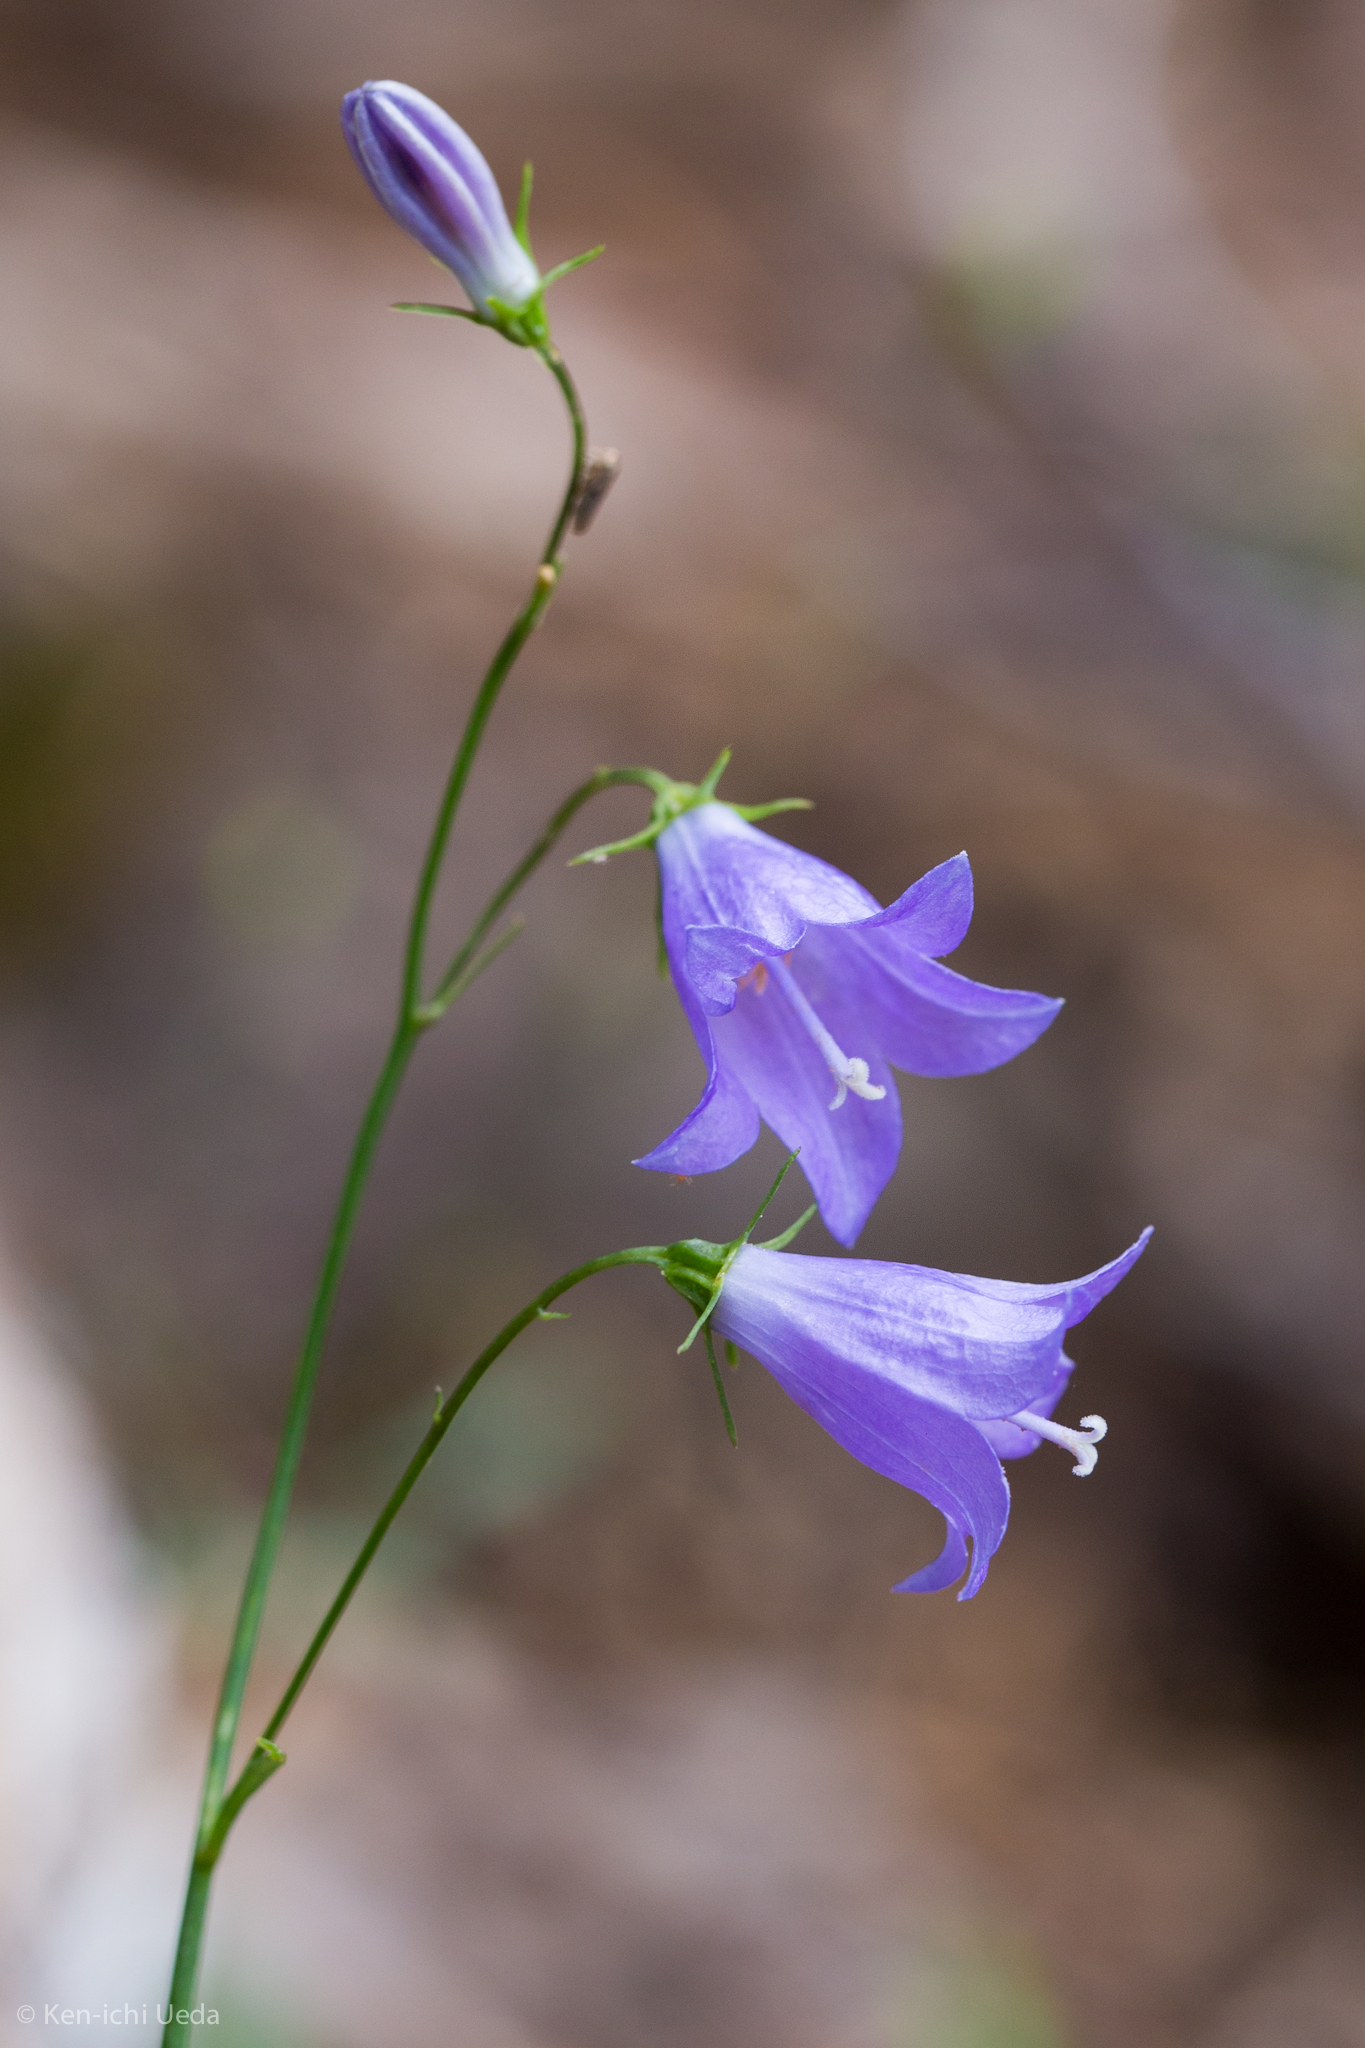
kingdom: Plantae
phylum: Tracheophyta
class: Magnoliopsida
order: Asterales
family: Campanulaceae
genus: Campanula
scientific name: Campanula petiolata
